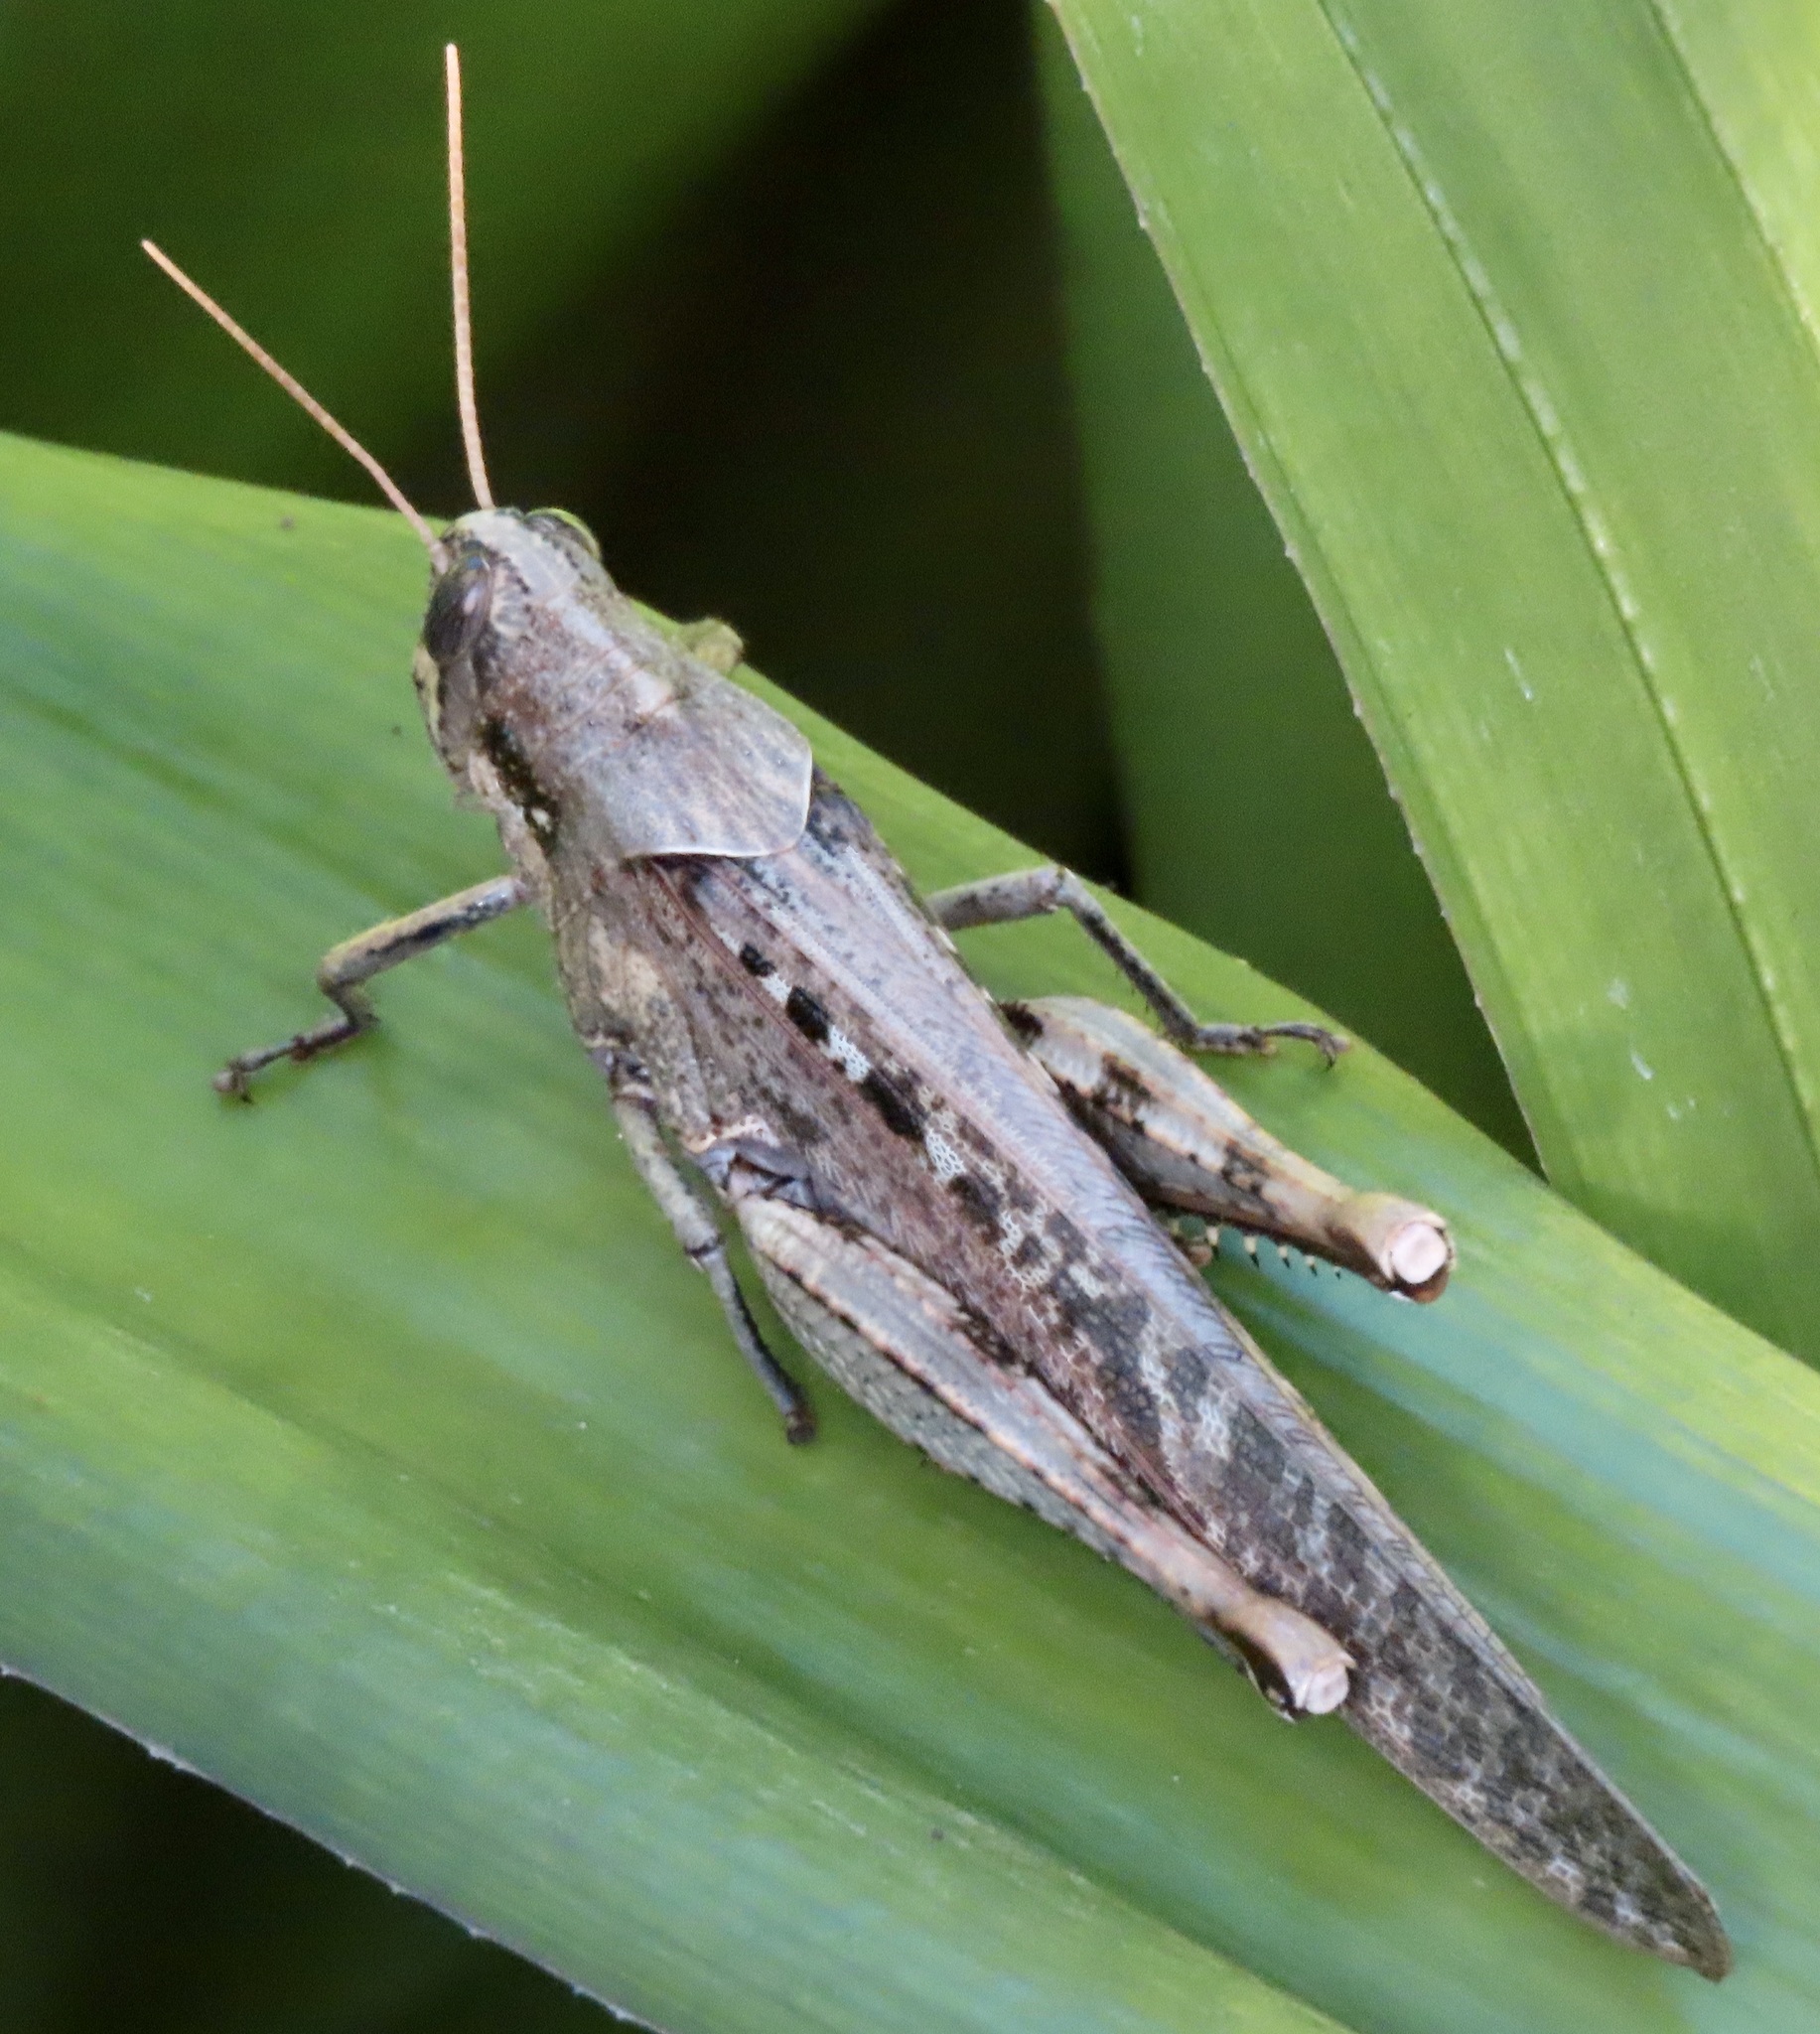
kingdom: Animalia
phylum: Arthropoda
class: Insecta
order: Orthoptera
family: Acrididae
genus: Schistocerca
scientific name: Schistocerca nitens
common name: Vagrant grasshopper
